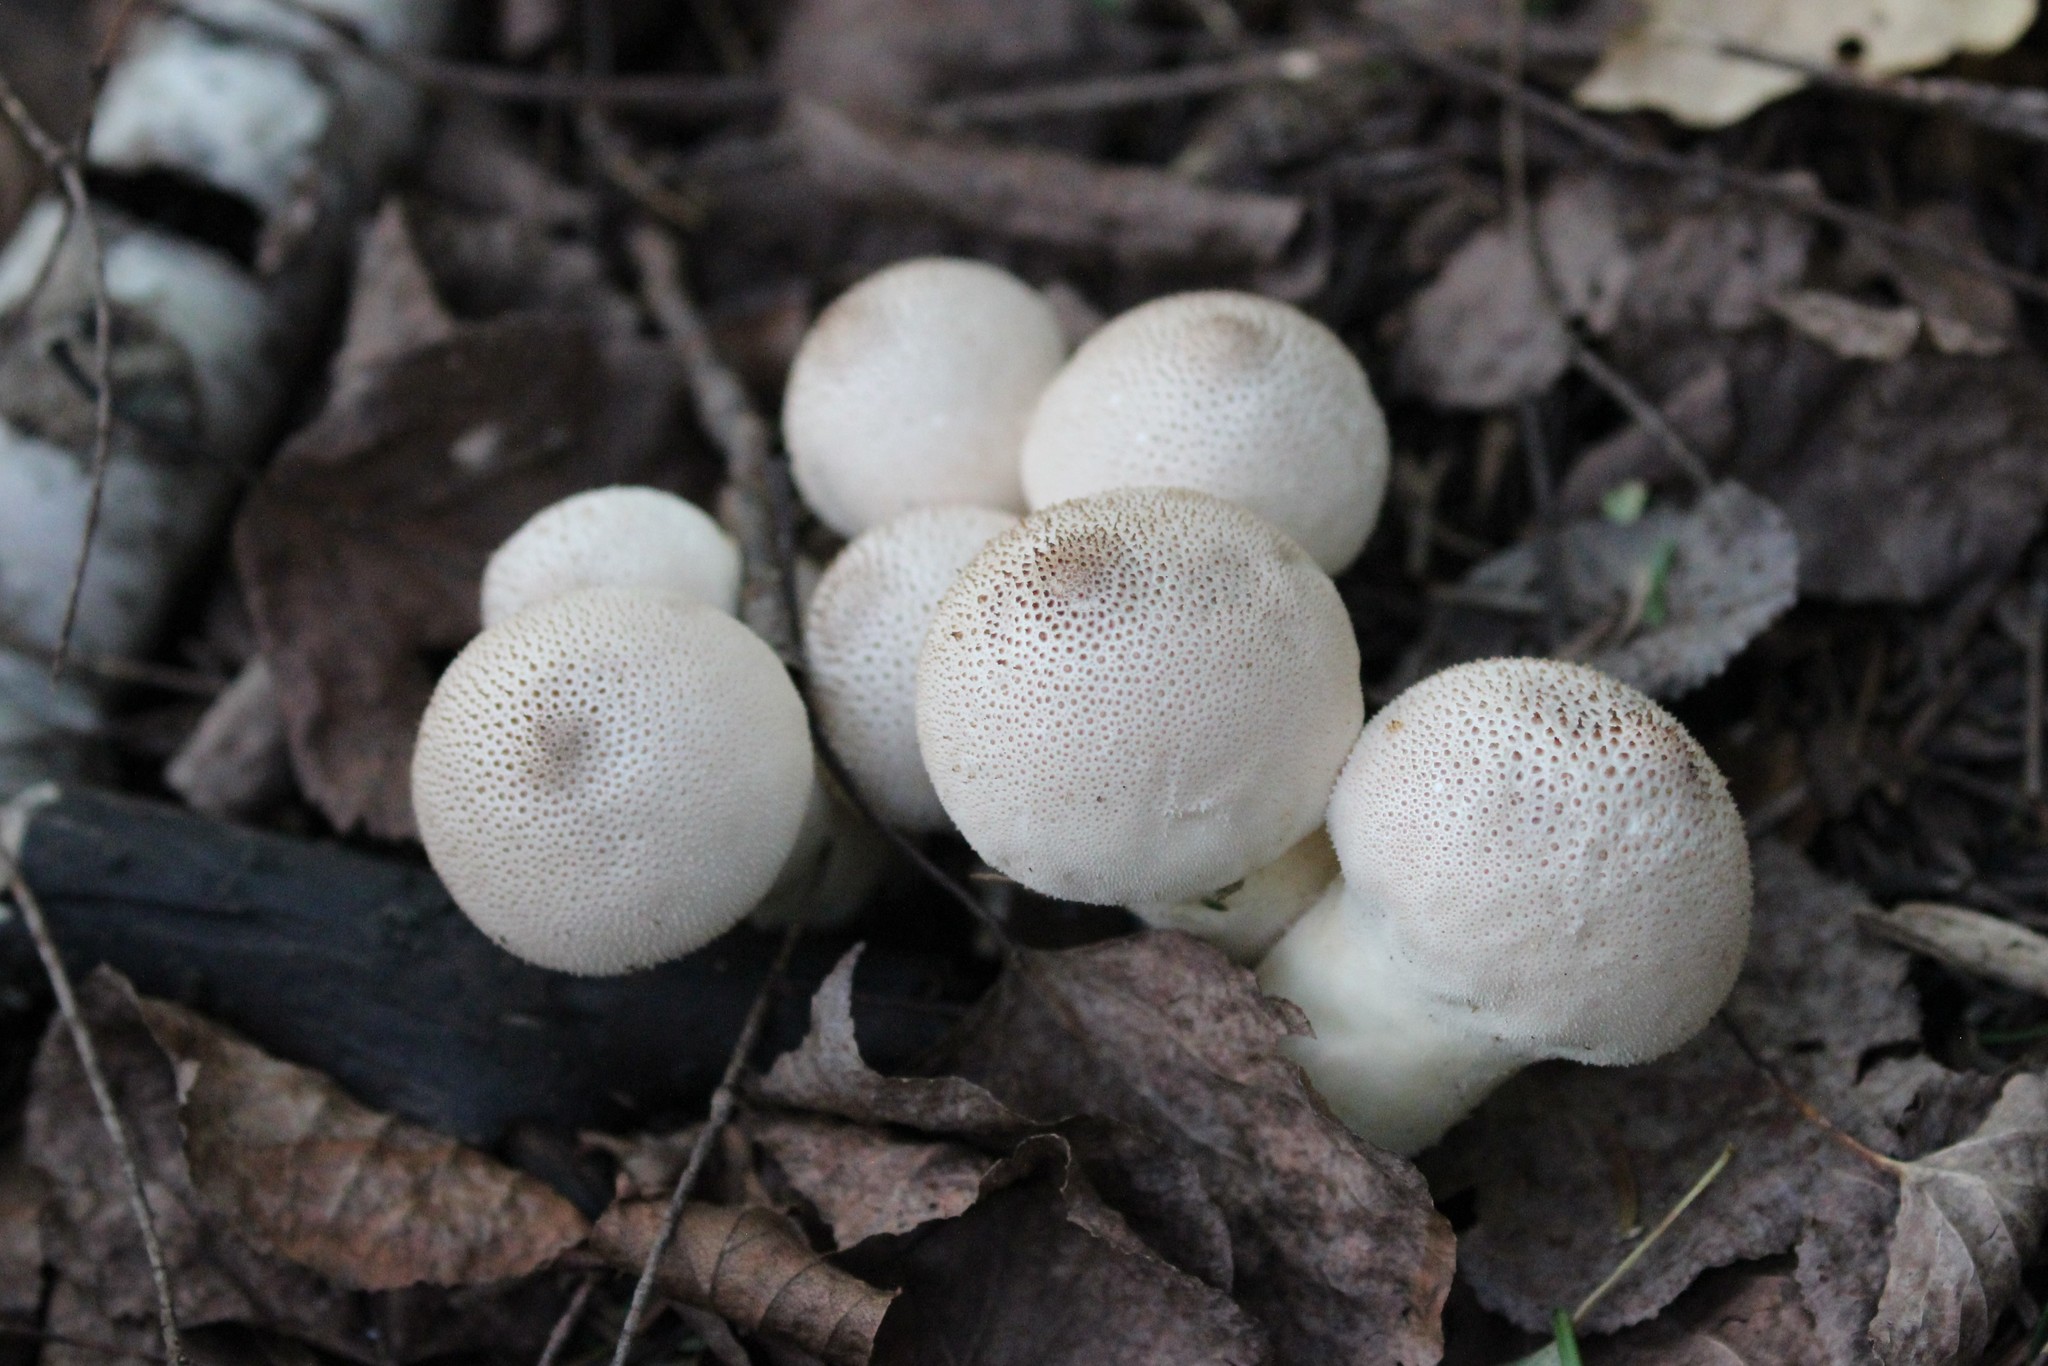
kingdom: Fungi
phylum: Basidiomycota
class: Agaricomycetes
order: Agaricales
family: Lycoperdaceae
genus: Lycoperdon
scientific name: Lycoperdon perlatum
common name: Common puffball
